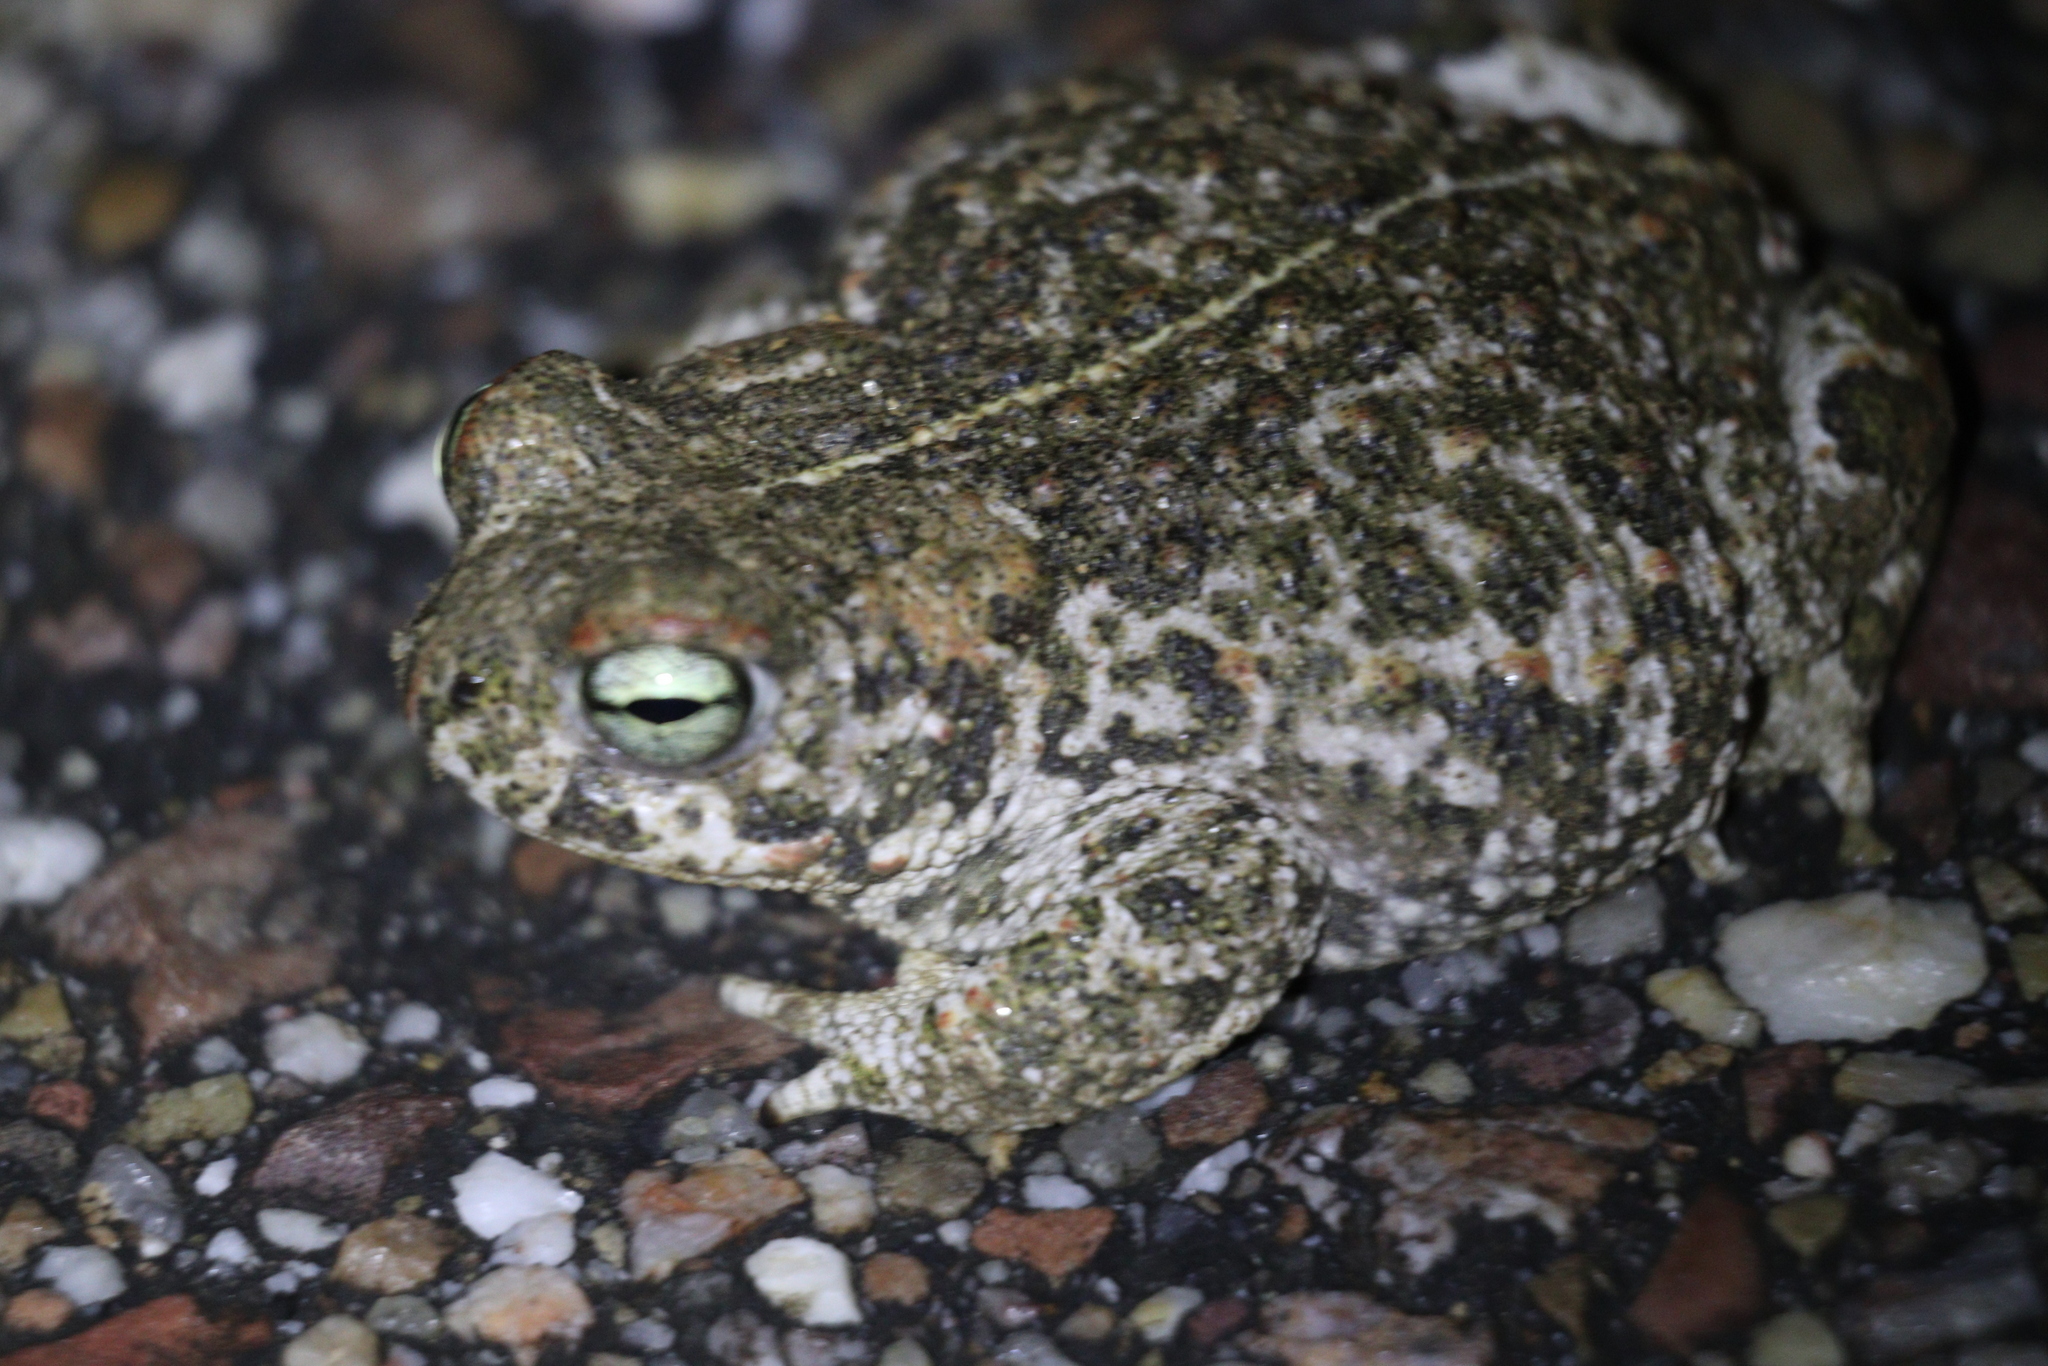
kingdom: Animalia
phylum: Chordata
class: Amphibia
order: Anura
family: Bufonidae
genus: Epidalea
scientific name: Epidalea calamita
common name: Natterjack toad
